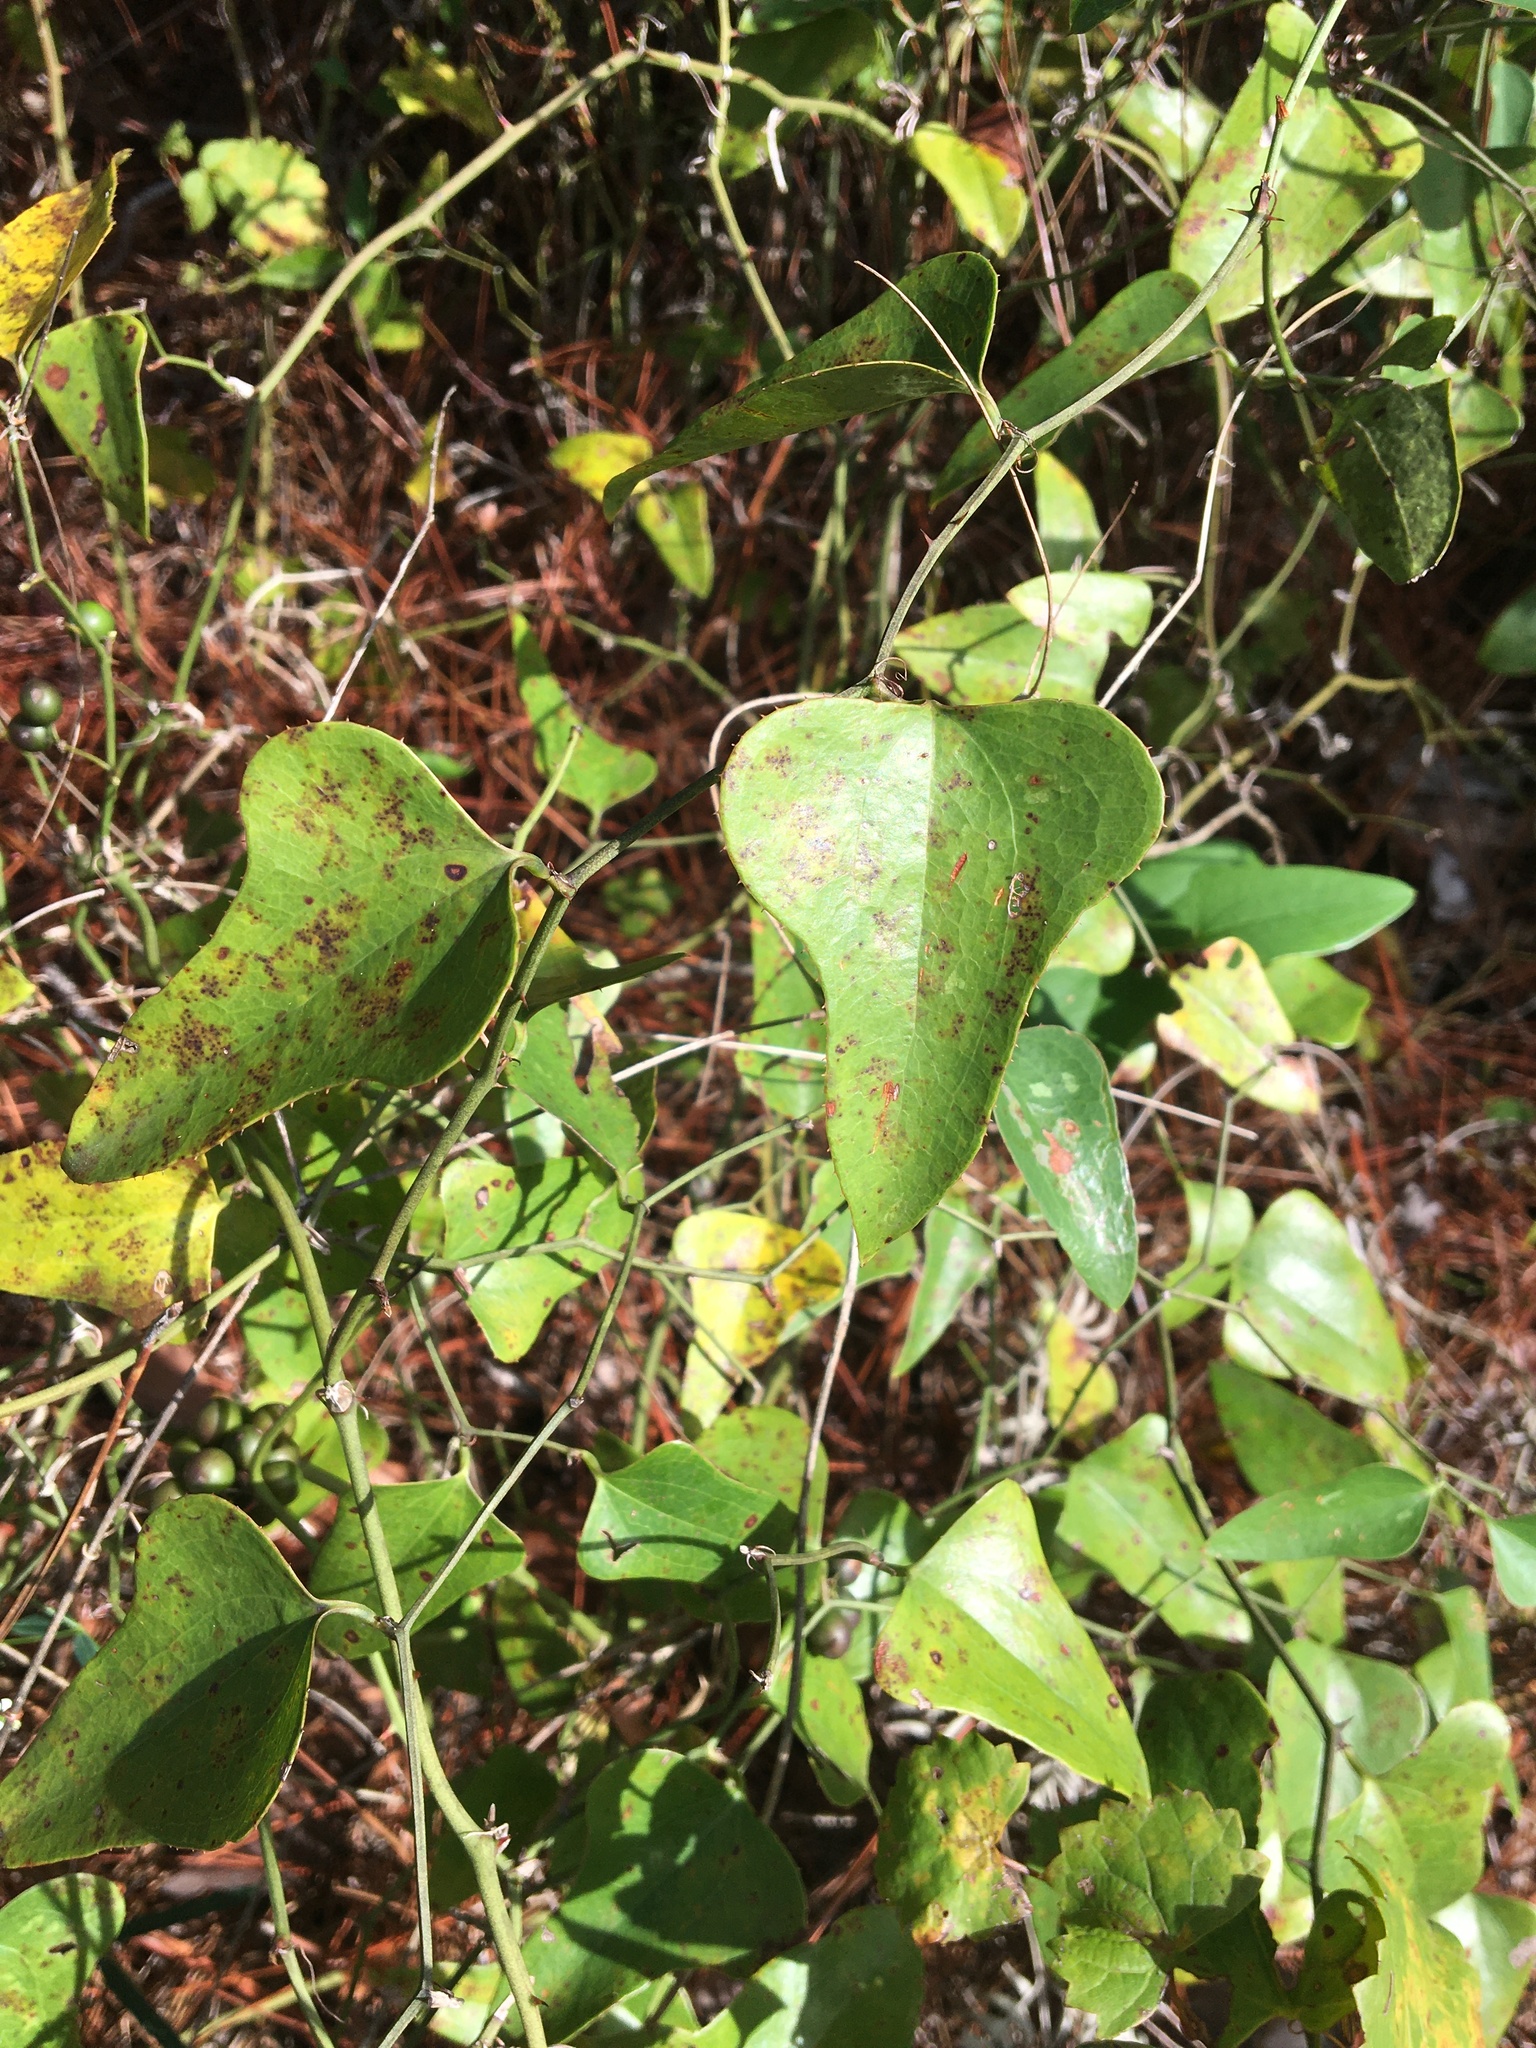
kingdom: Plantae
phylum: Tracheophyta
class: Liliopsida
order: Liliales
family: Smilacaceae
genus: Smilax
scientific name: Smilax bona-nox
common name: Catbrier
